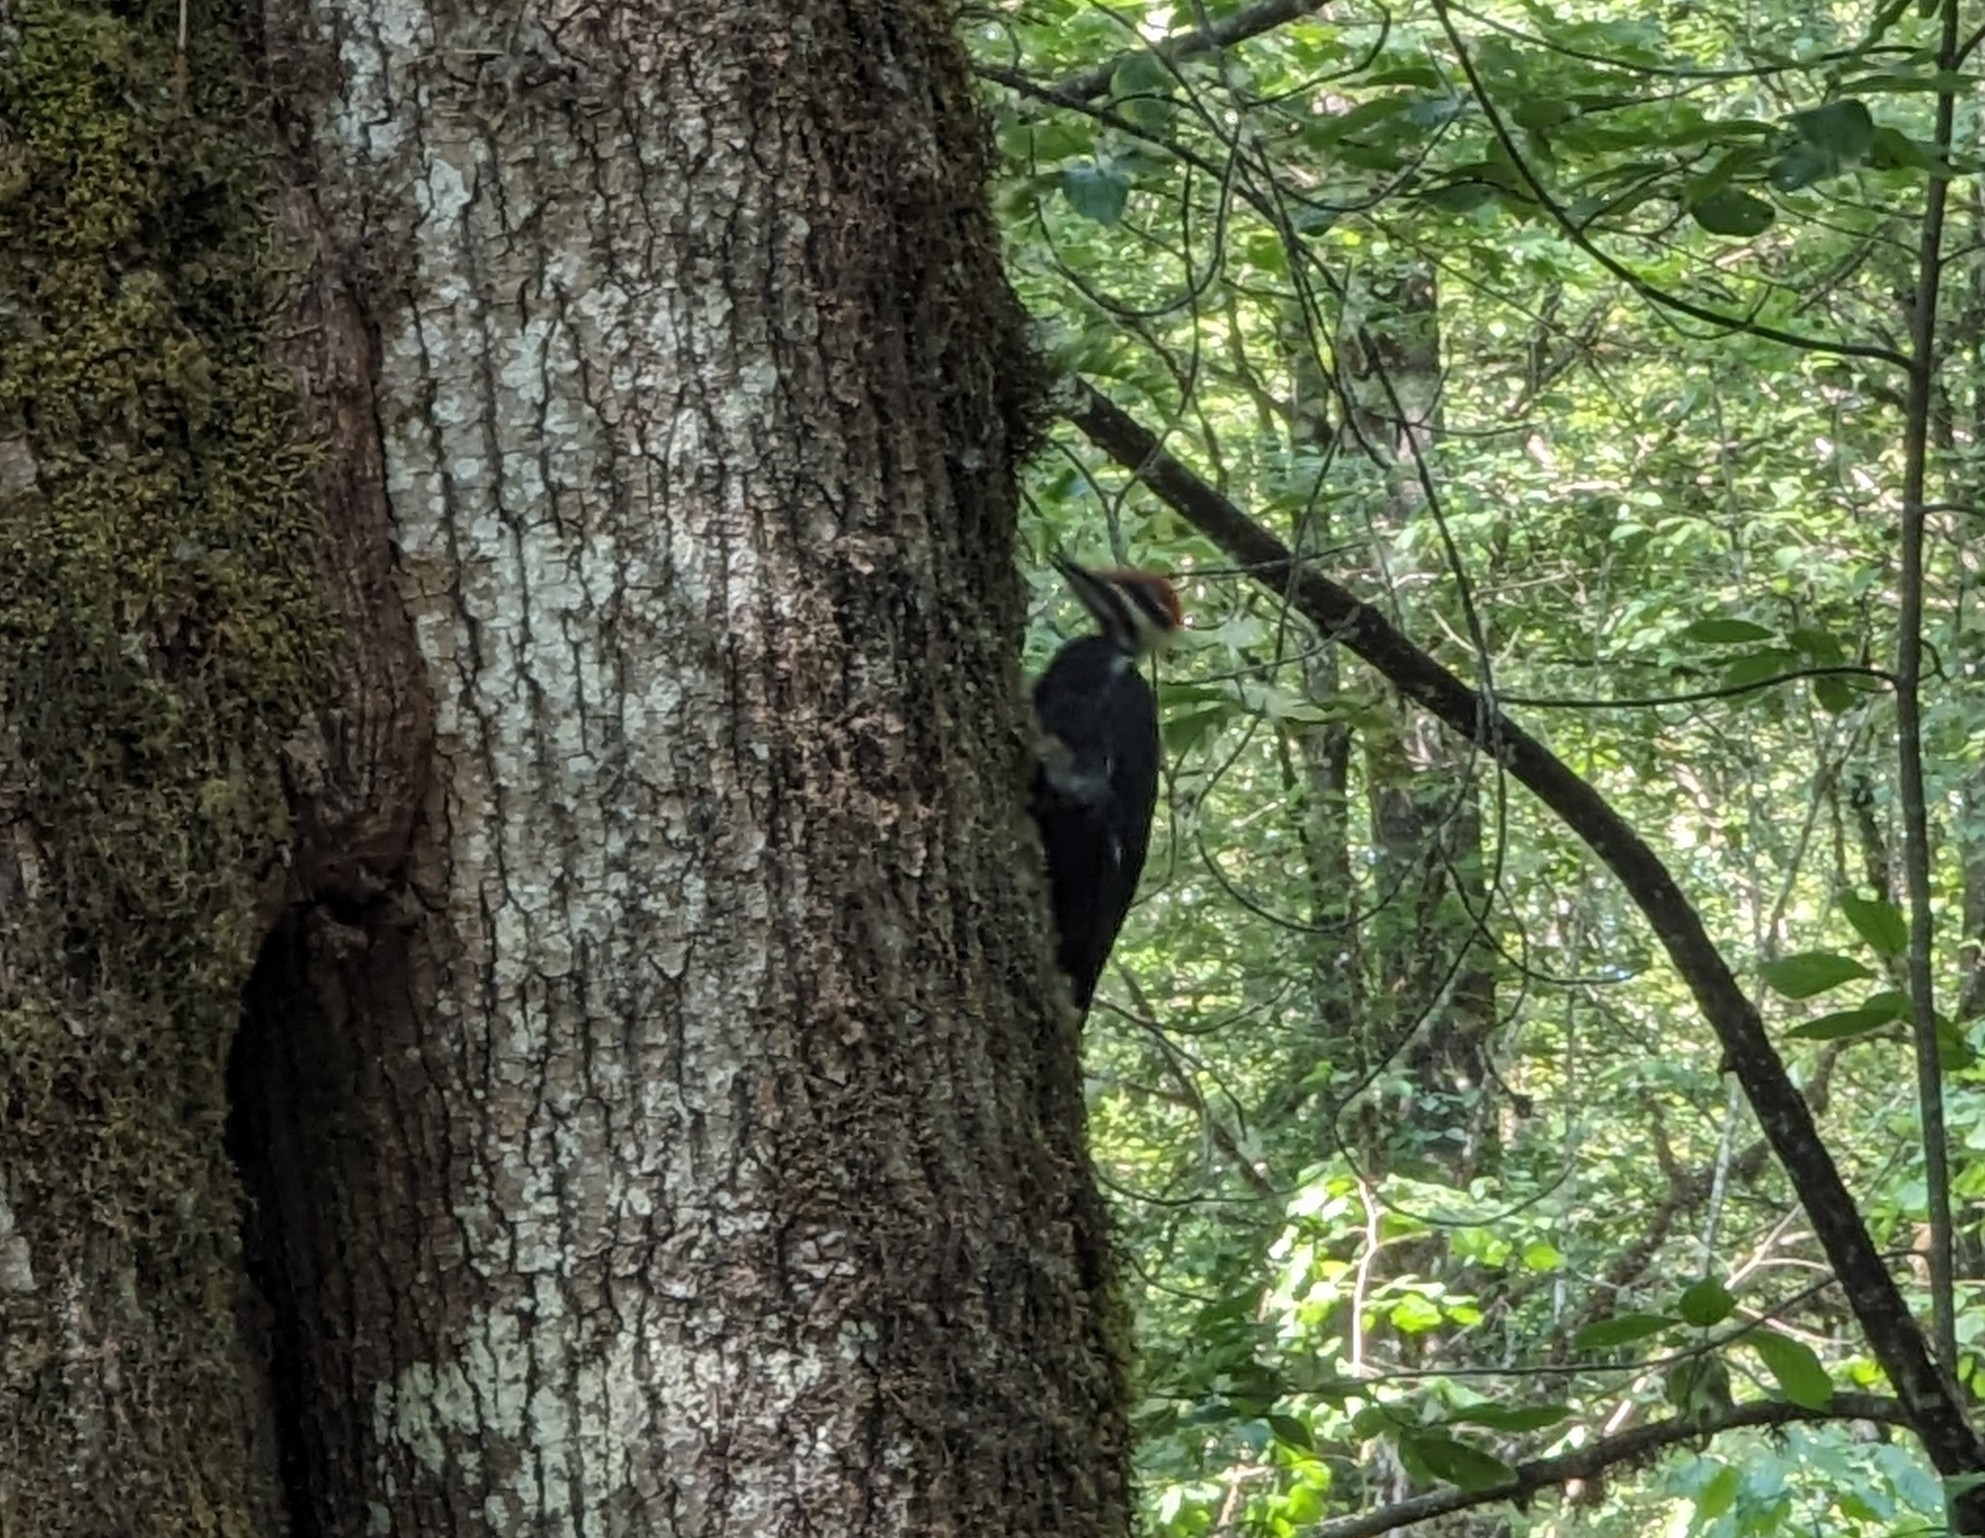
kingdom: Animalia
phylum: Chordata
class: Aves
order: Piciformes
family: Picidae
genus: Dryocopus
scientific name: Dryocopus pileatus
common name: Pileated woodpecker
